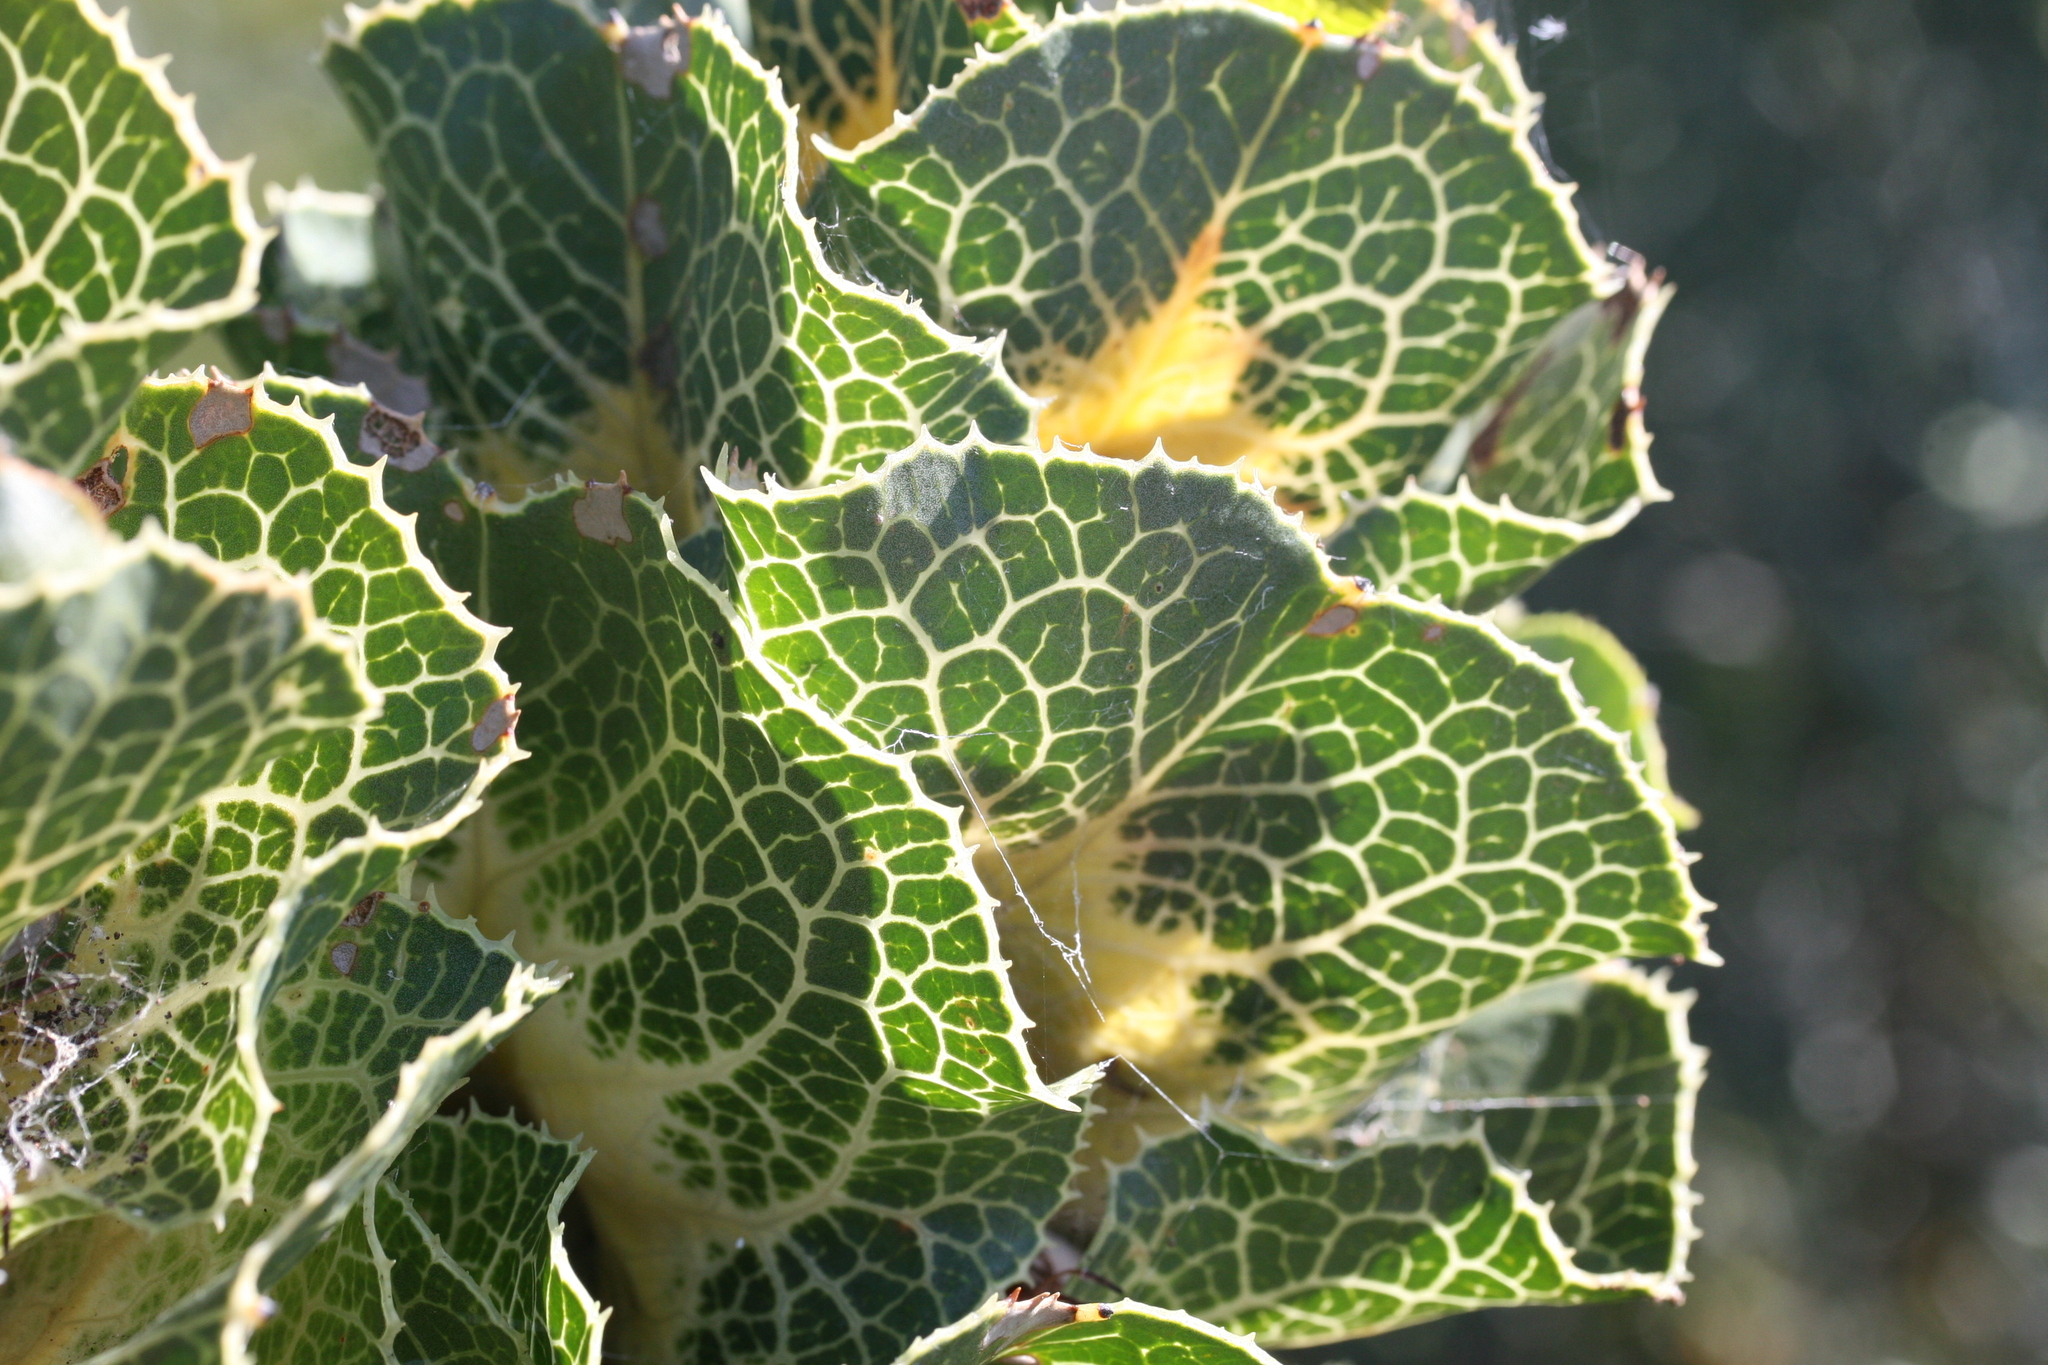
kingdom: Plantae
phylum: Tracheophyta
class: Magnoliopsida
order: Proteales
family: Proteaceae
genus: Hakea
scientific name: Hakea victoria
